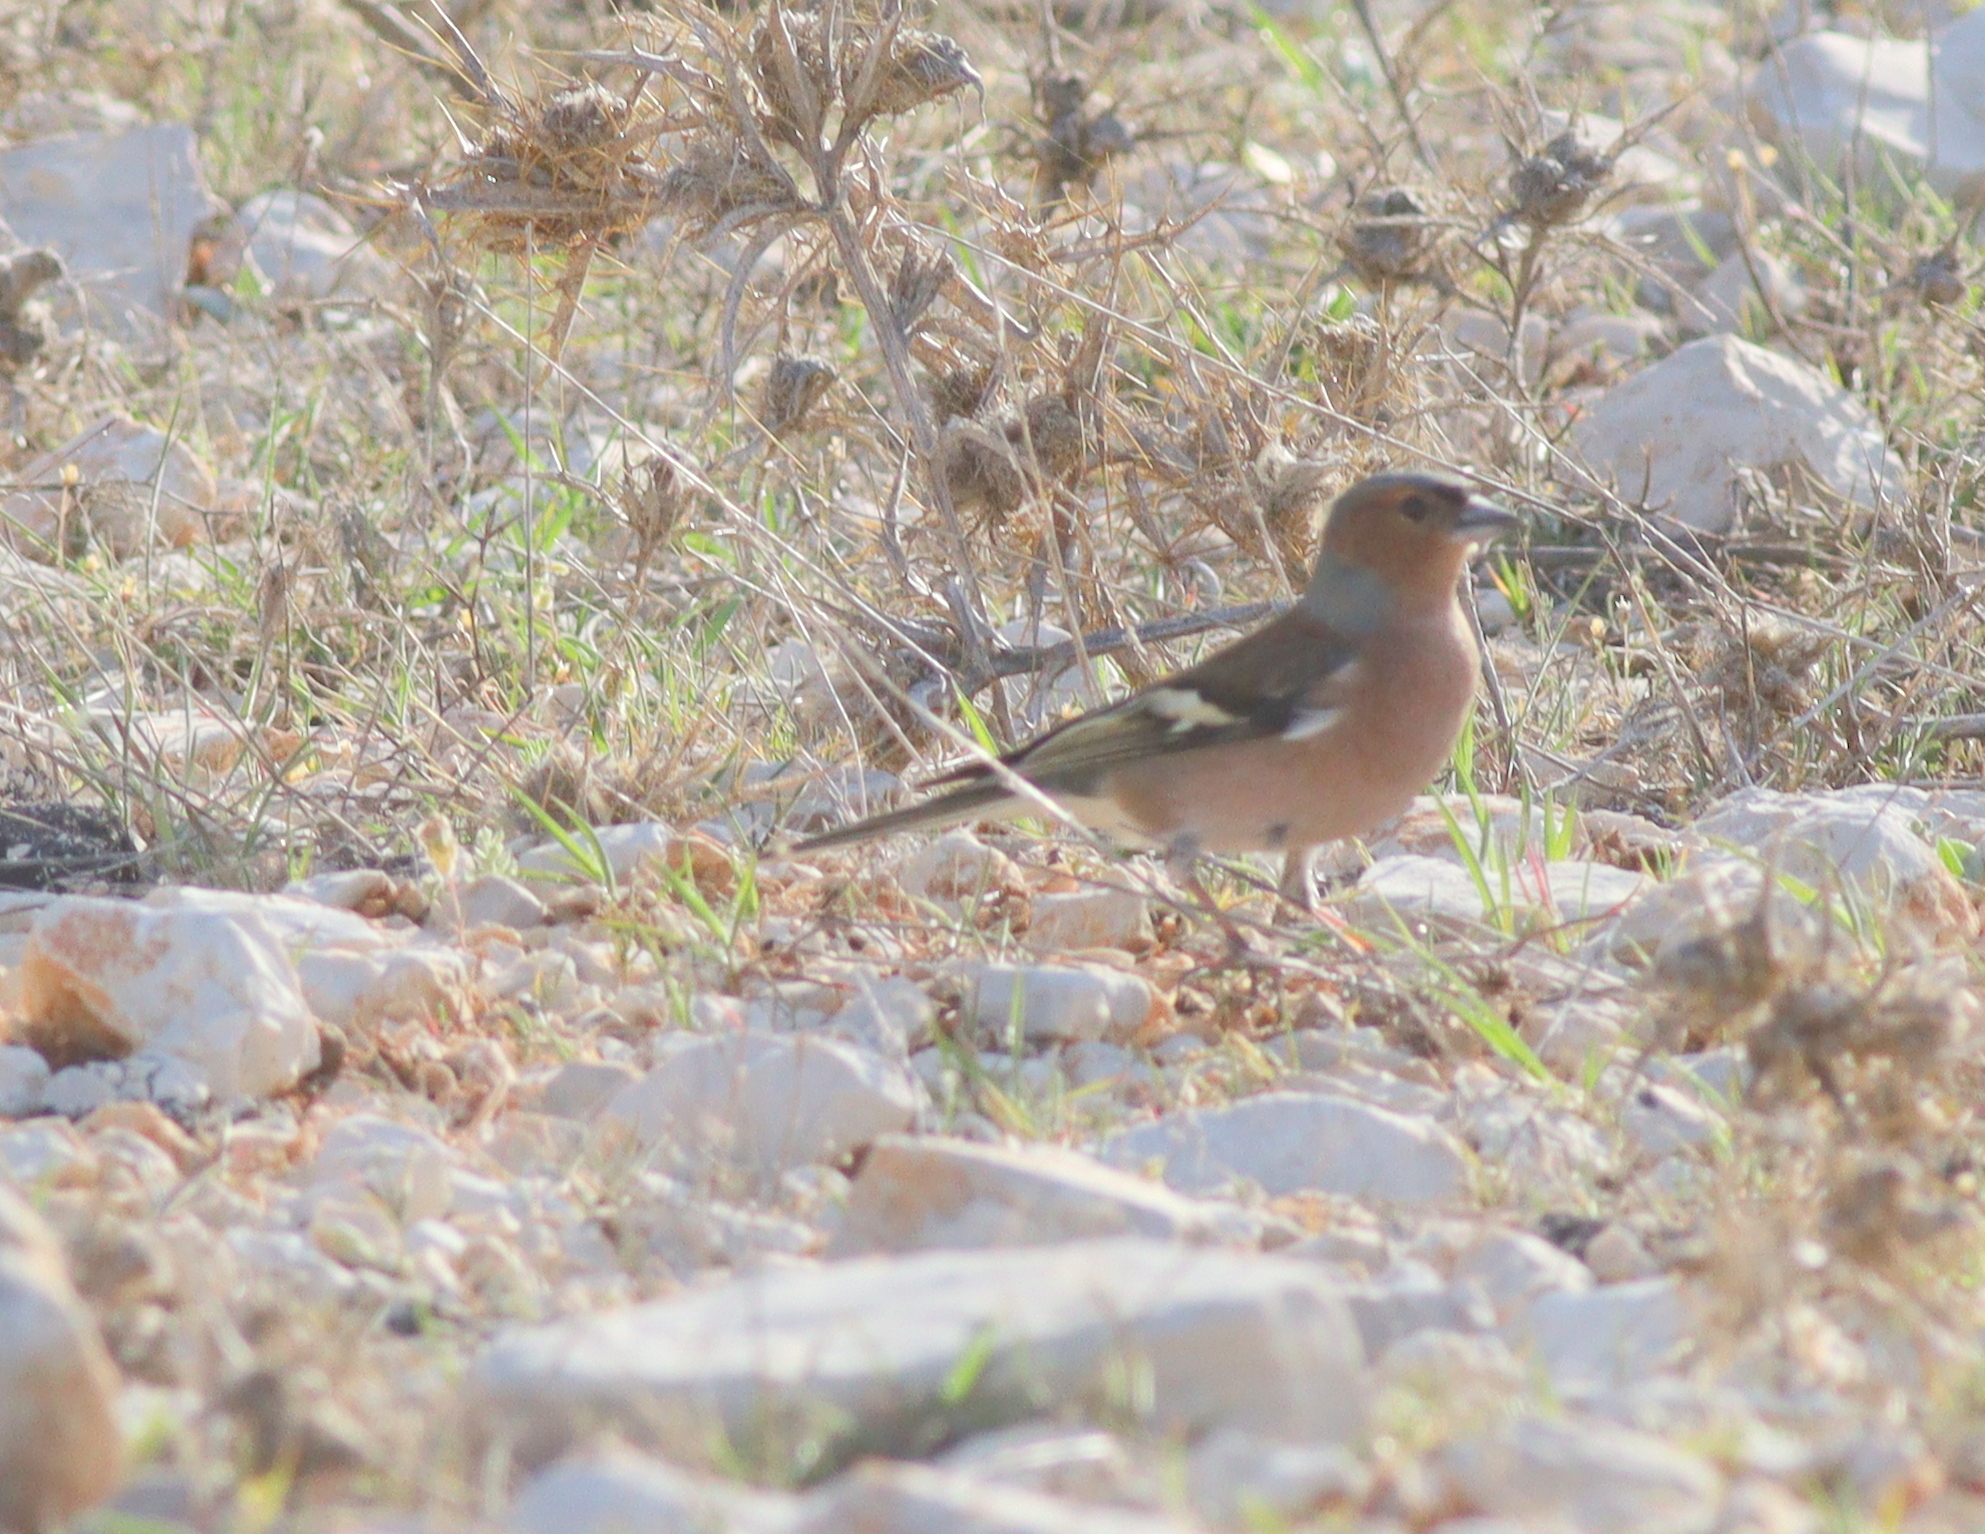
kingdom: Animalia
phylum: Chordata
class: Aves
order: Passeriformes
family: Fringillidae
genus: Fringilla
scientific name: Fringilla coelebs
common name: Common chaffinch
